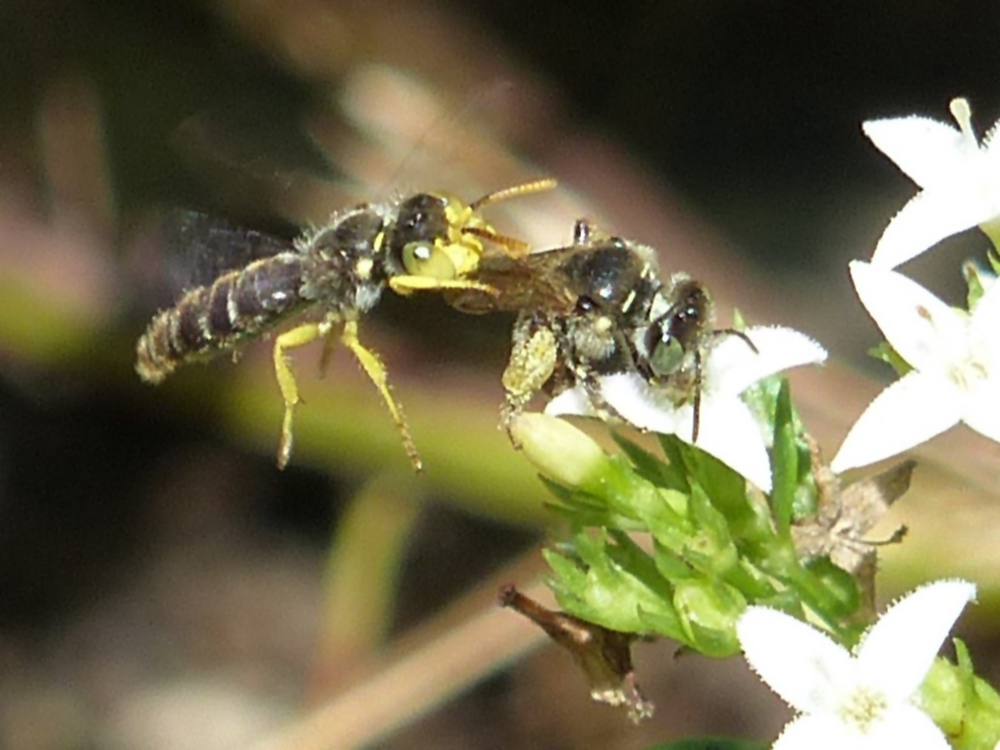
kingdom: Animalia
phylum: Arthropoda
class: Insecta
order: Hymenoptera
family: Andrenidae
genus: Calliopsis
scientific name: Calliopsis andreniformis
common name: Eastern calliopsis bee
